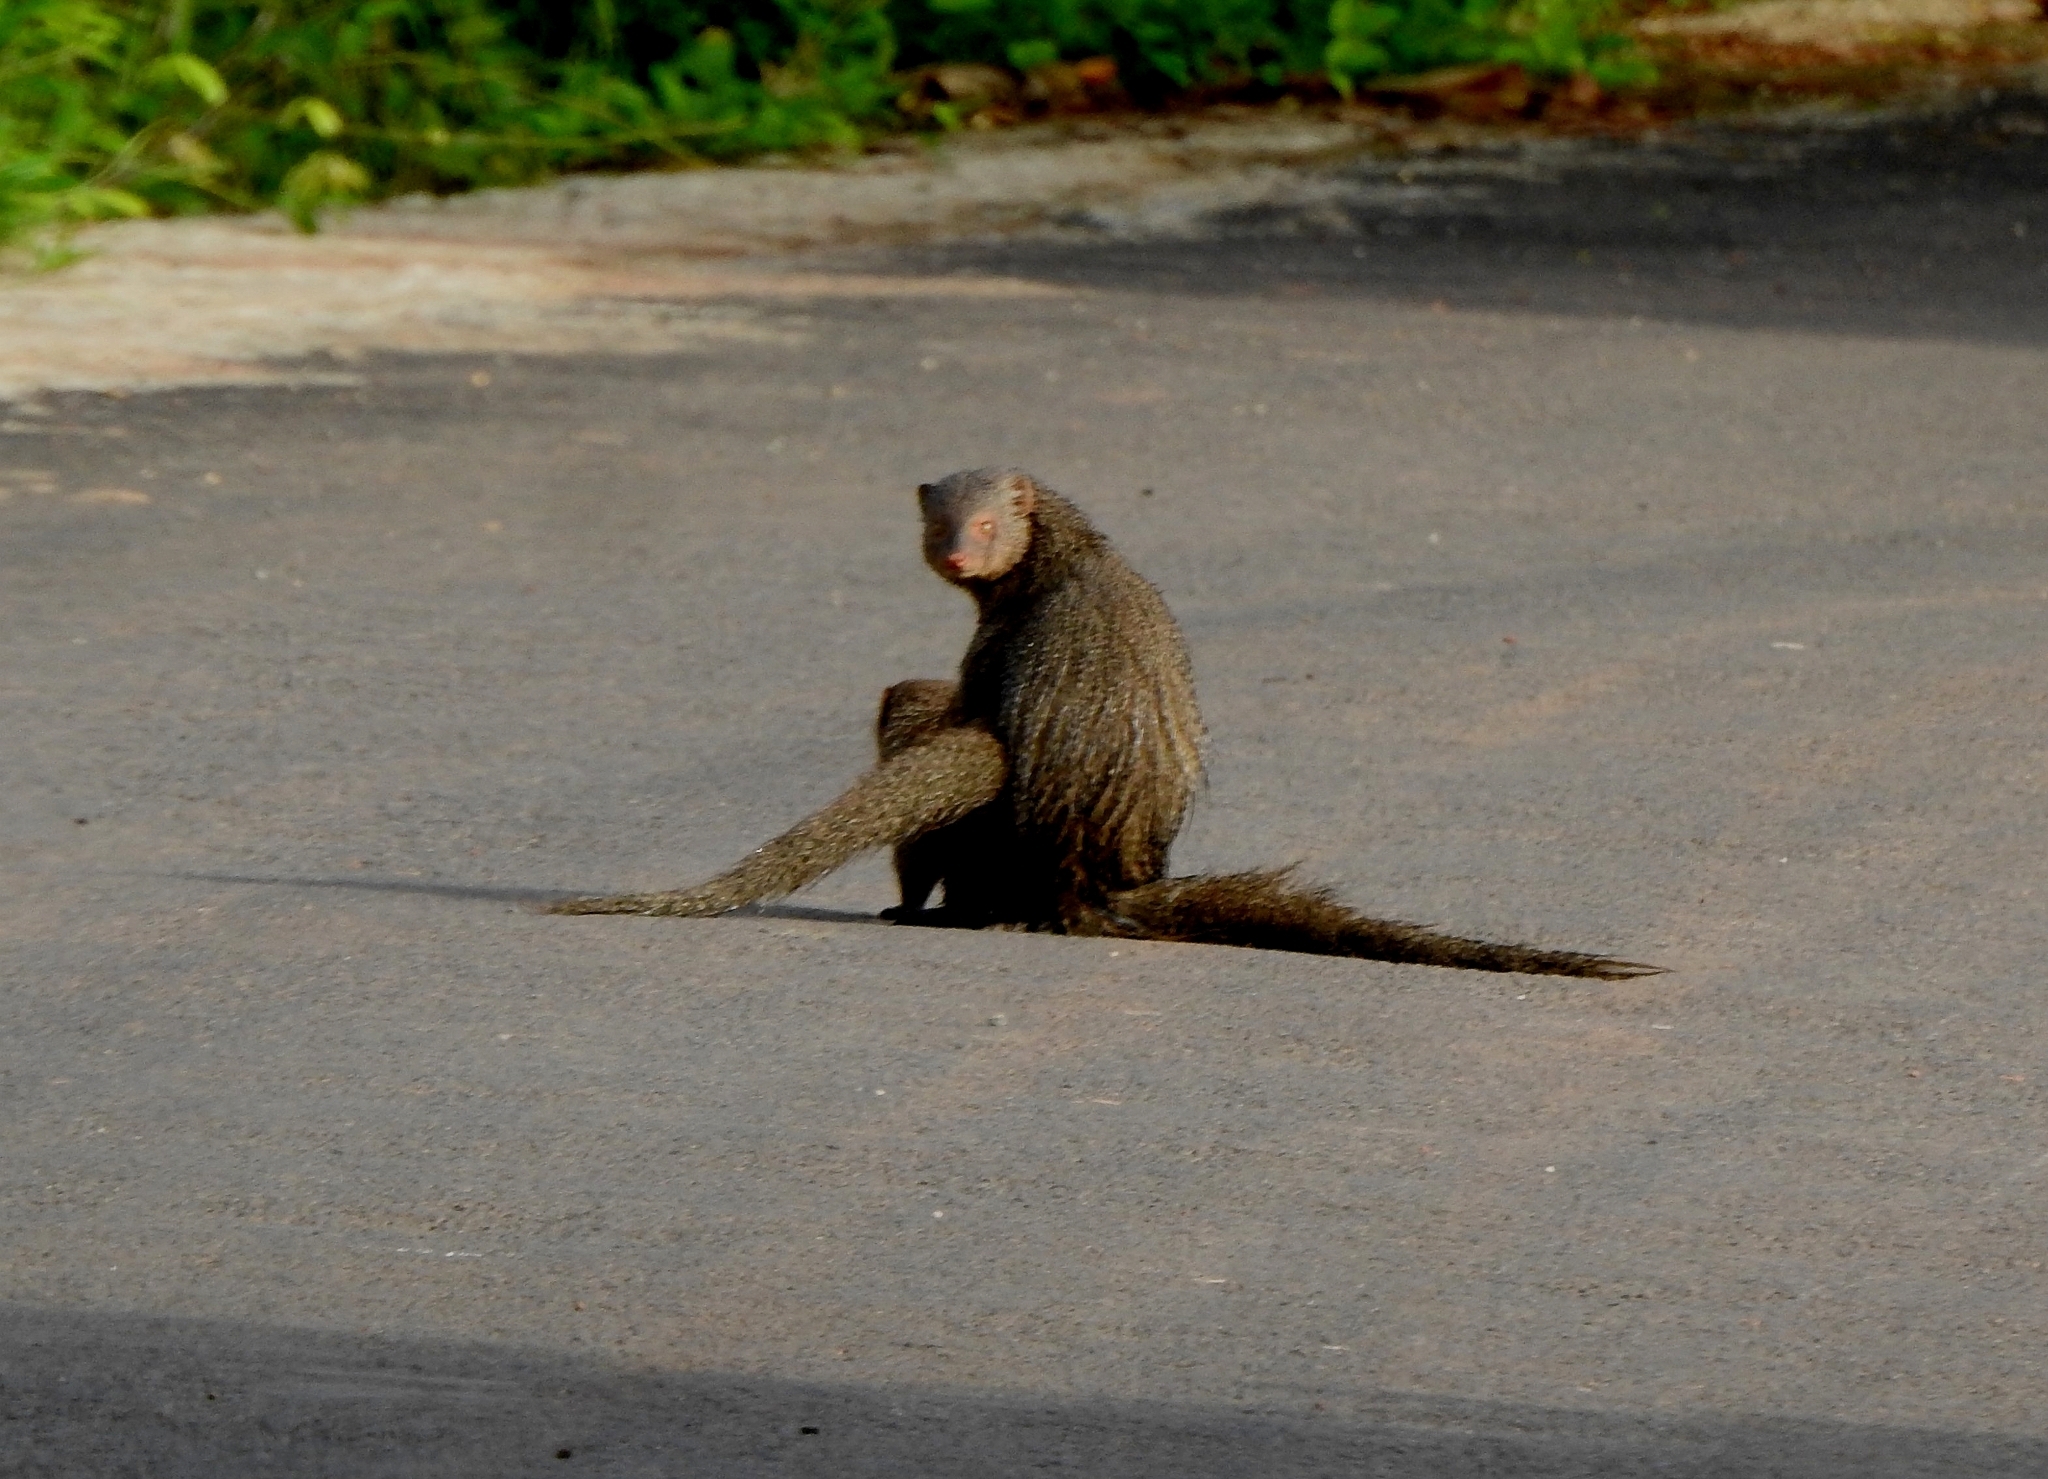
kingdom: Animalia
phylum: Chordata
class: Mammalia
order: Carnivora
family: Herpestidae
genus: Herpestes
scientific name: Herpestes edwardsi
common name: Indian gray mongoose
